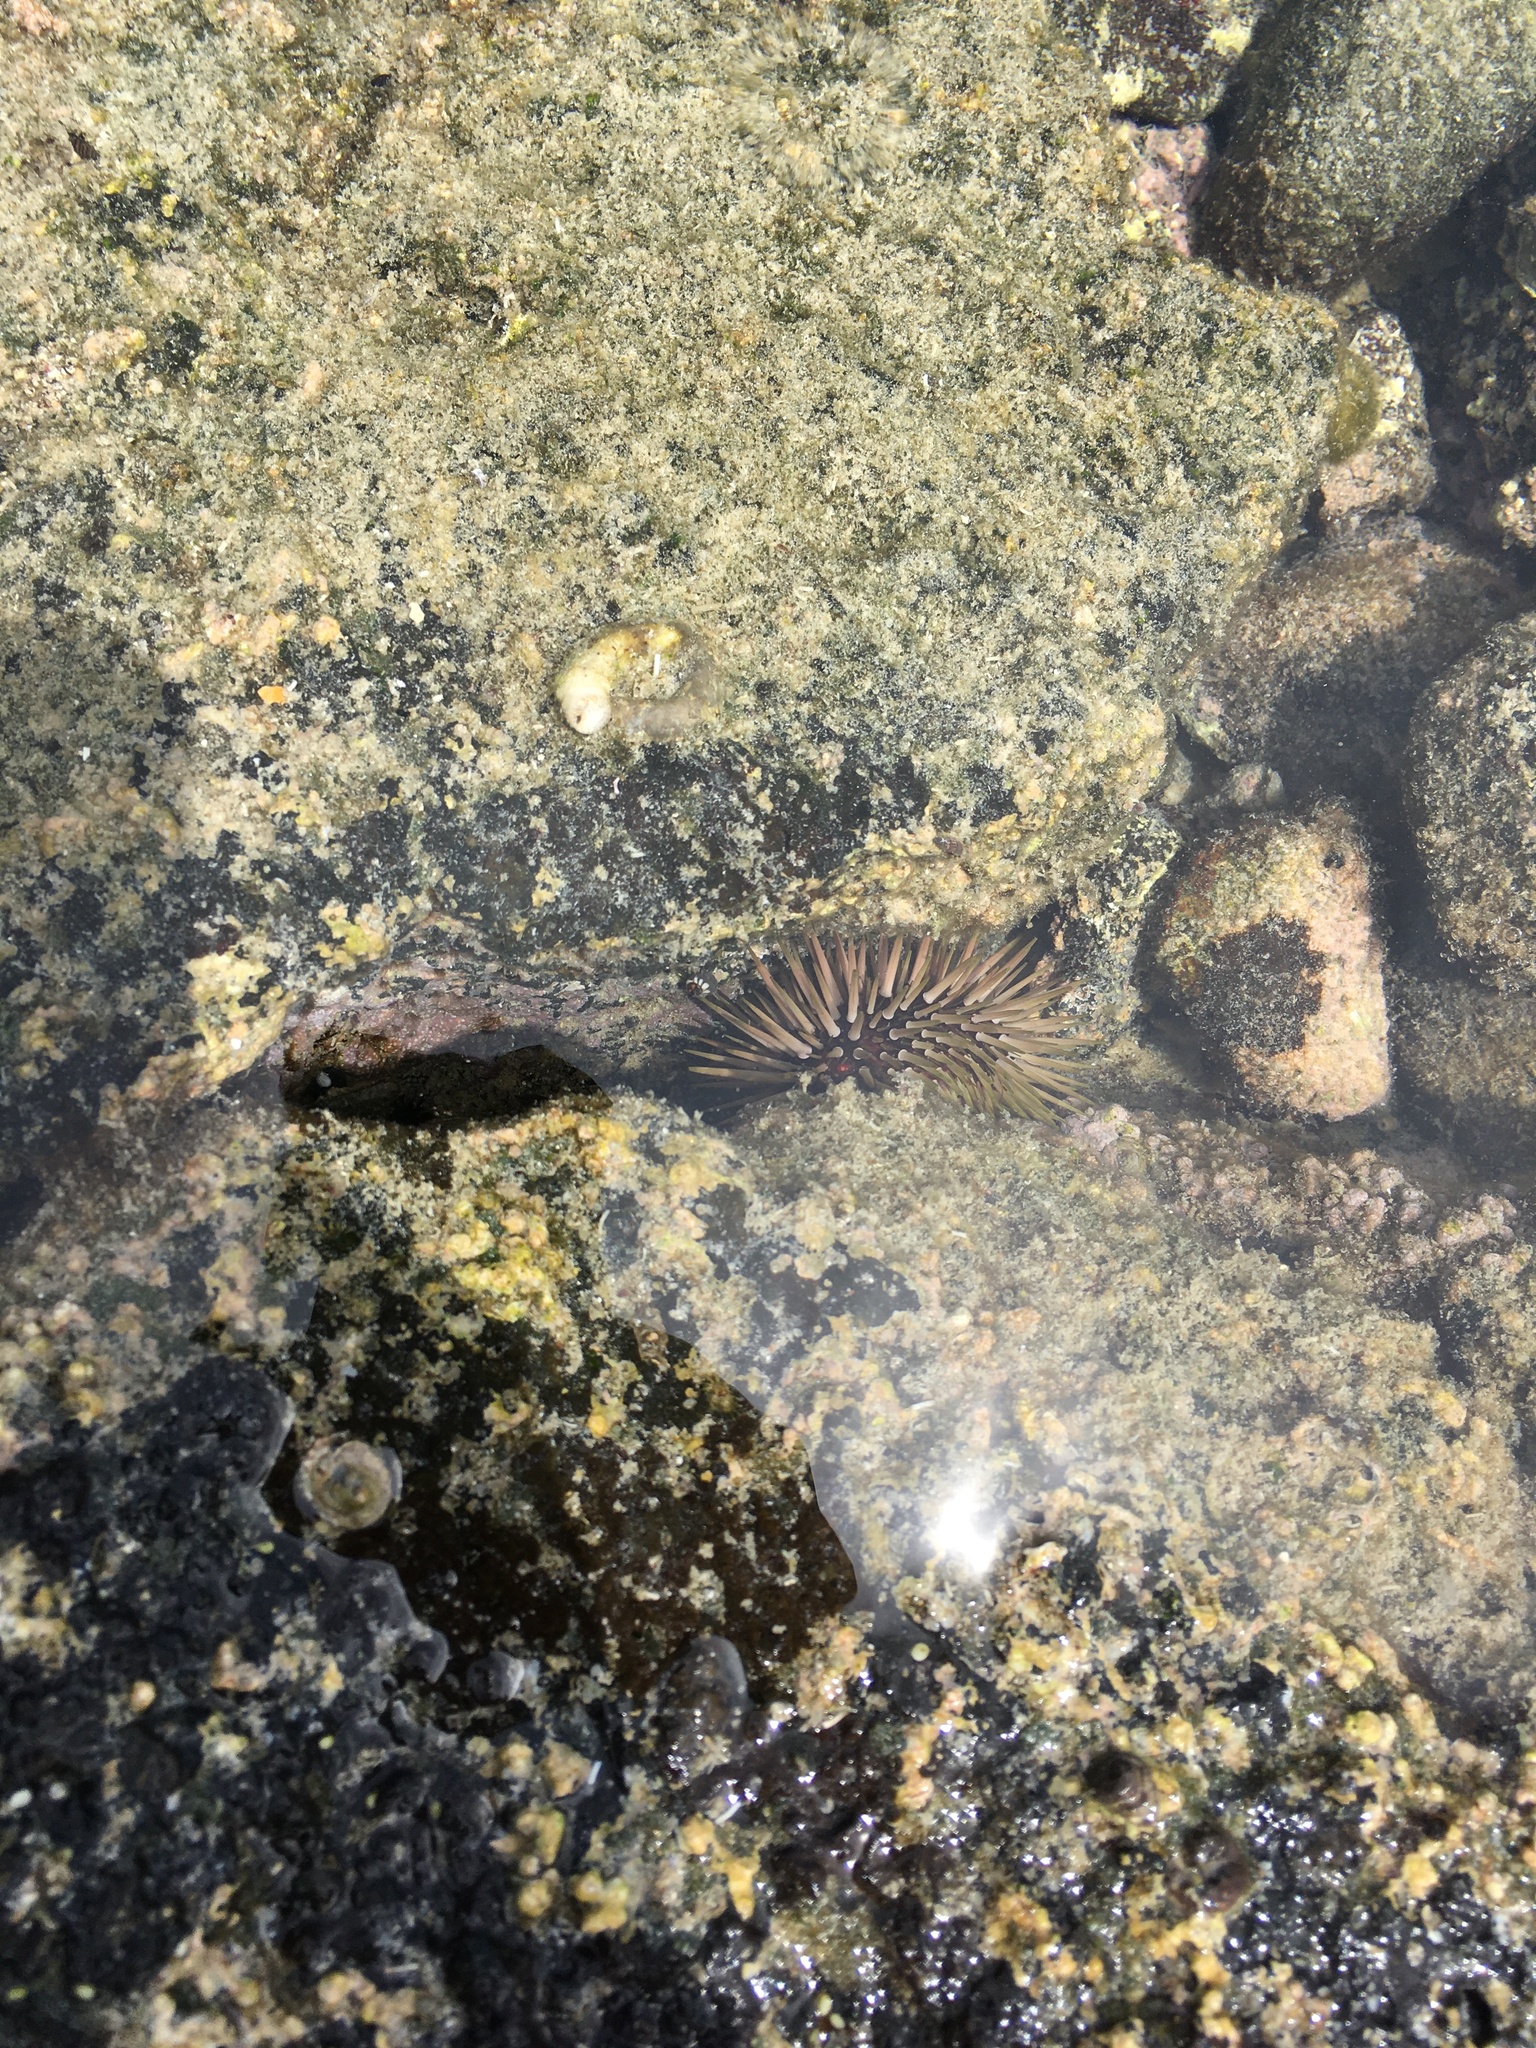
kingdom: Animalia
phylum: Echinodermata
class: Echinoidea
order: Camarodonta
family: Echinometridae
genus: Echinometra
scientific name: Echinometra mathaei
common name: Rock-boring urchin
